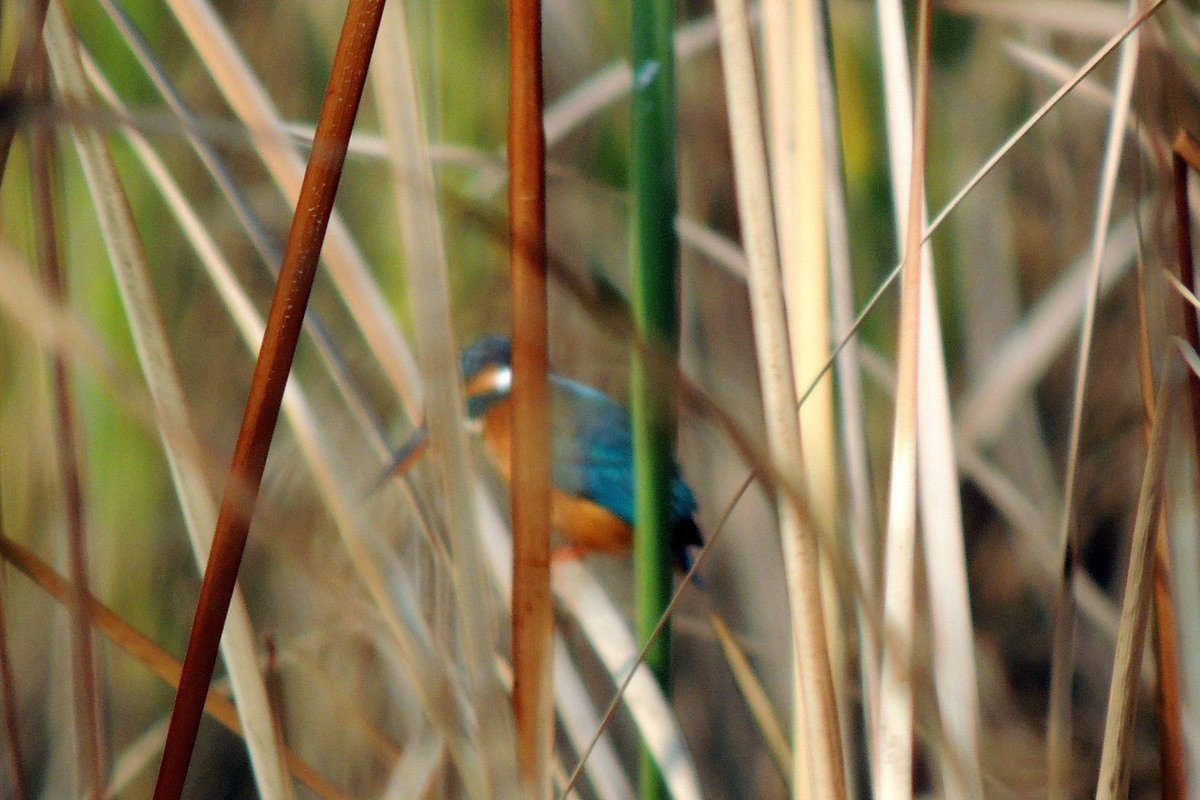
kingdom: Animalia
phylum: Chordata
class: Aves
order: Coraciiformes
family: Alcedinidae
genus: Alcedo
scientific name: Alcedo atthis
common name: Common kingfisher
